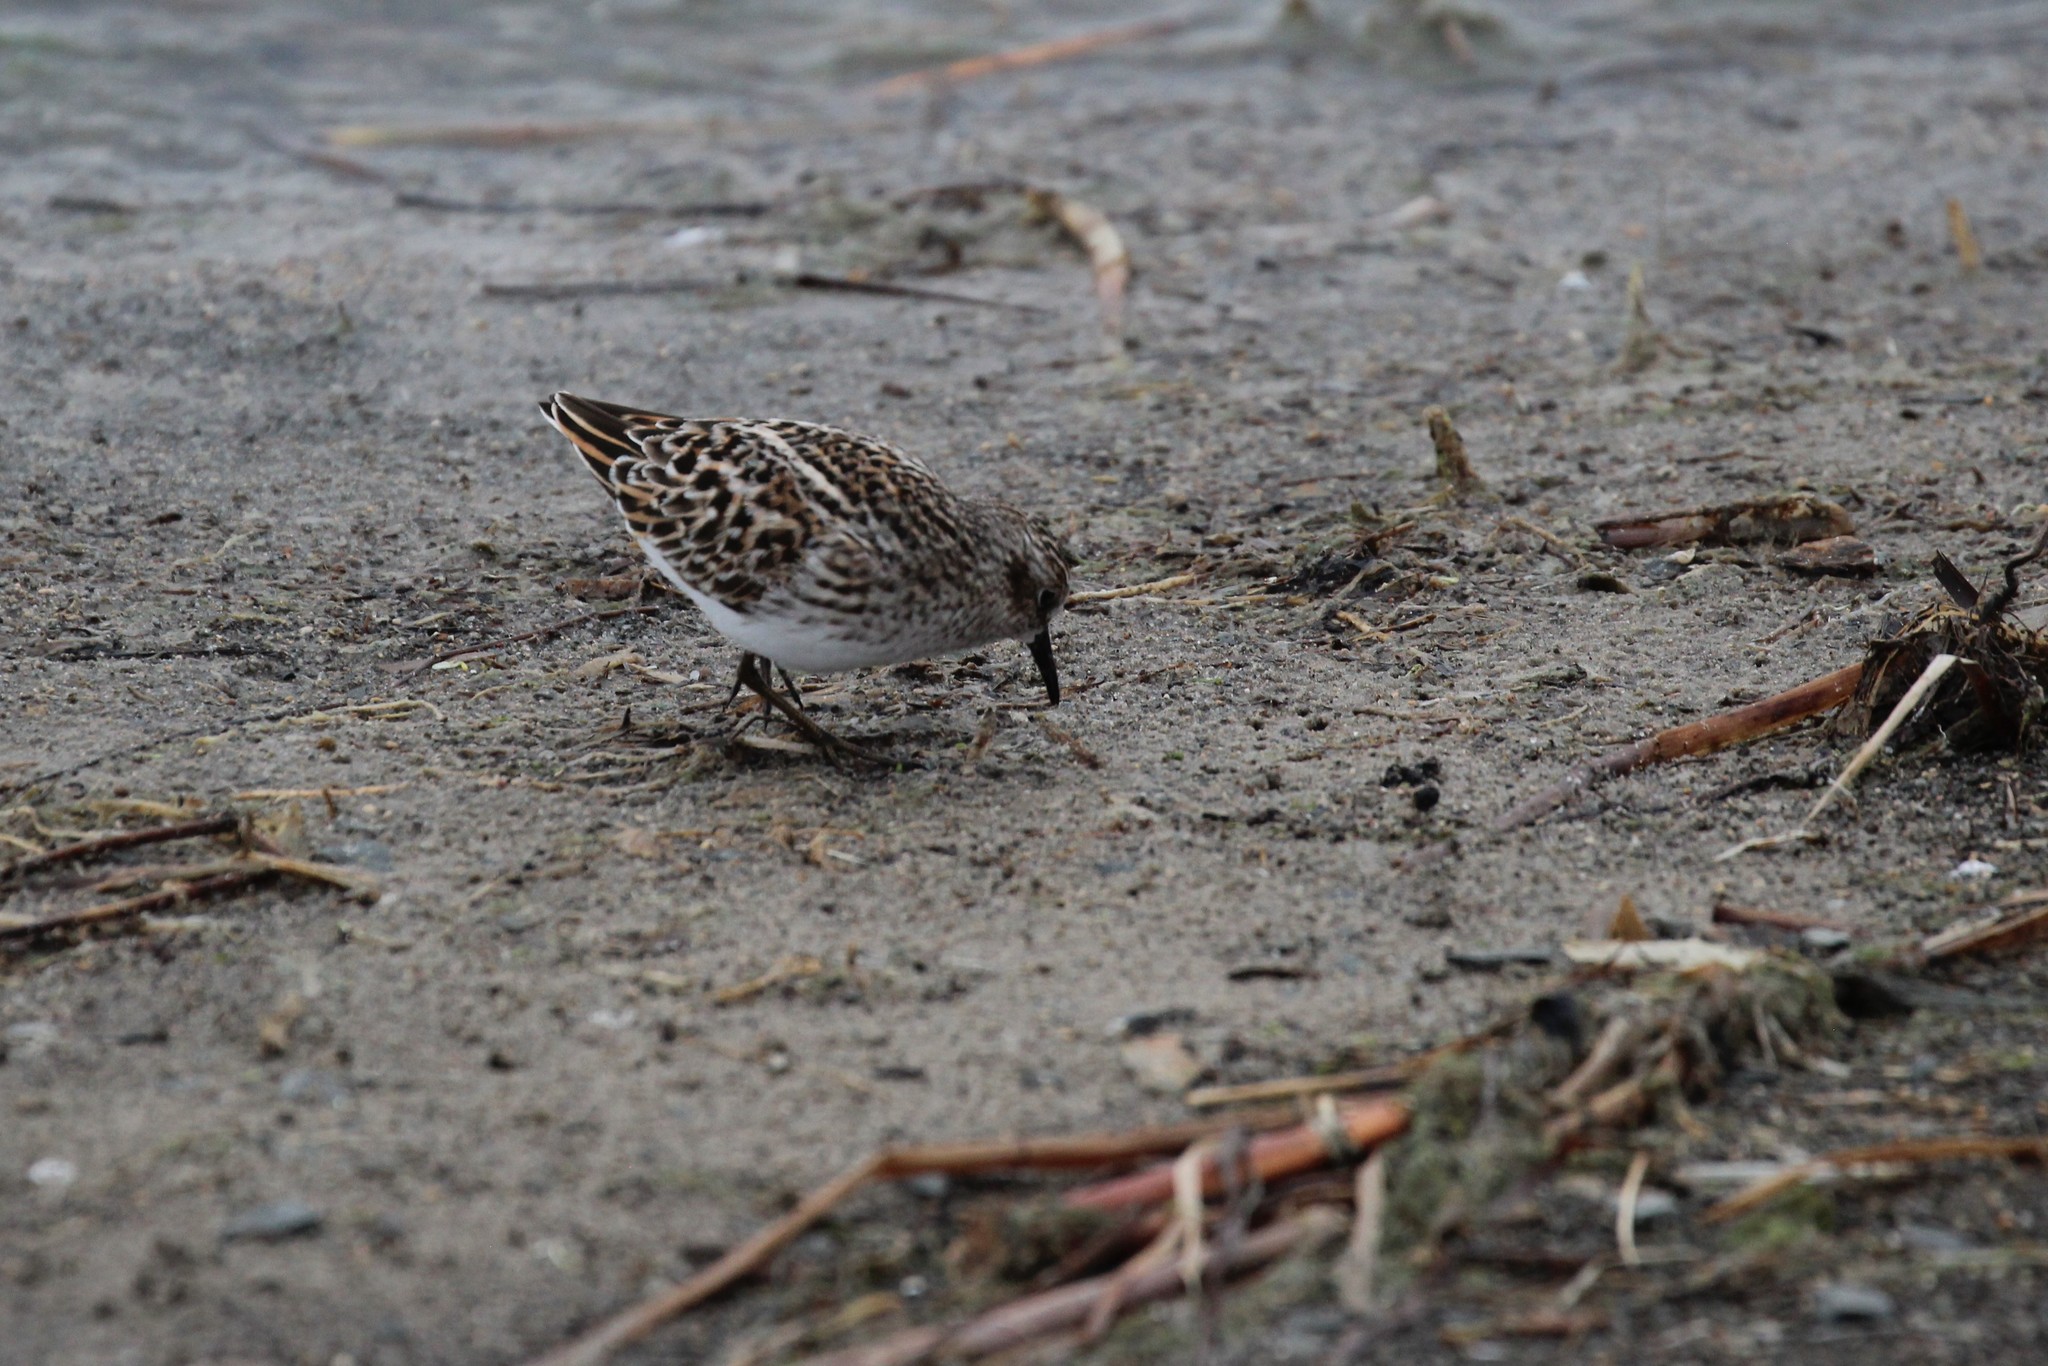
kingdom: Animalia
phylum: Chordata
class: Aves
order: Charadriiformes
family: Scolopacidae
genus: Calidris
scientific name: Calidris minutilla
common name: Least sandpiper
